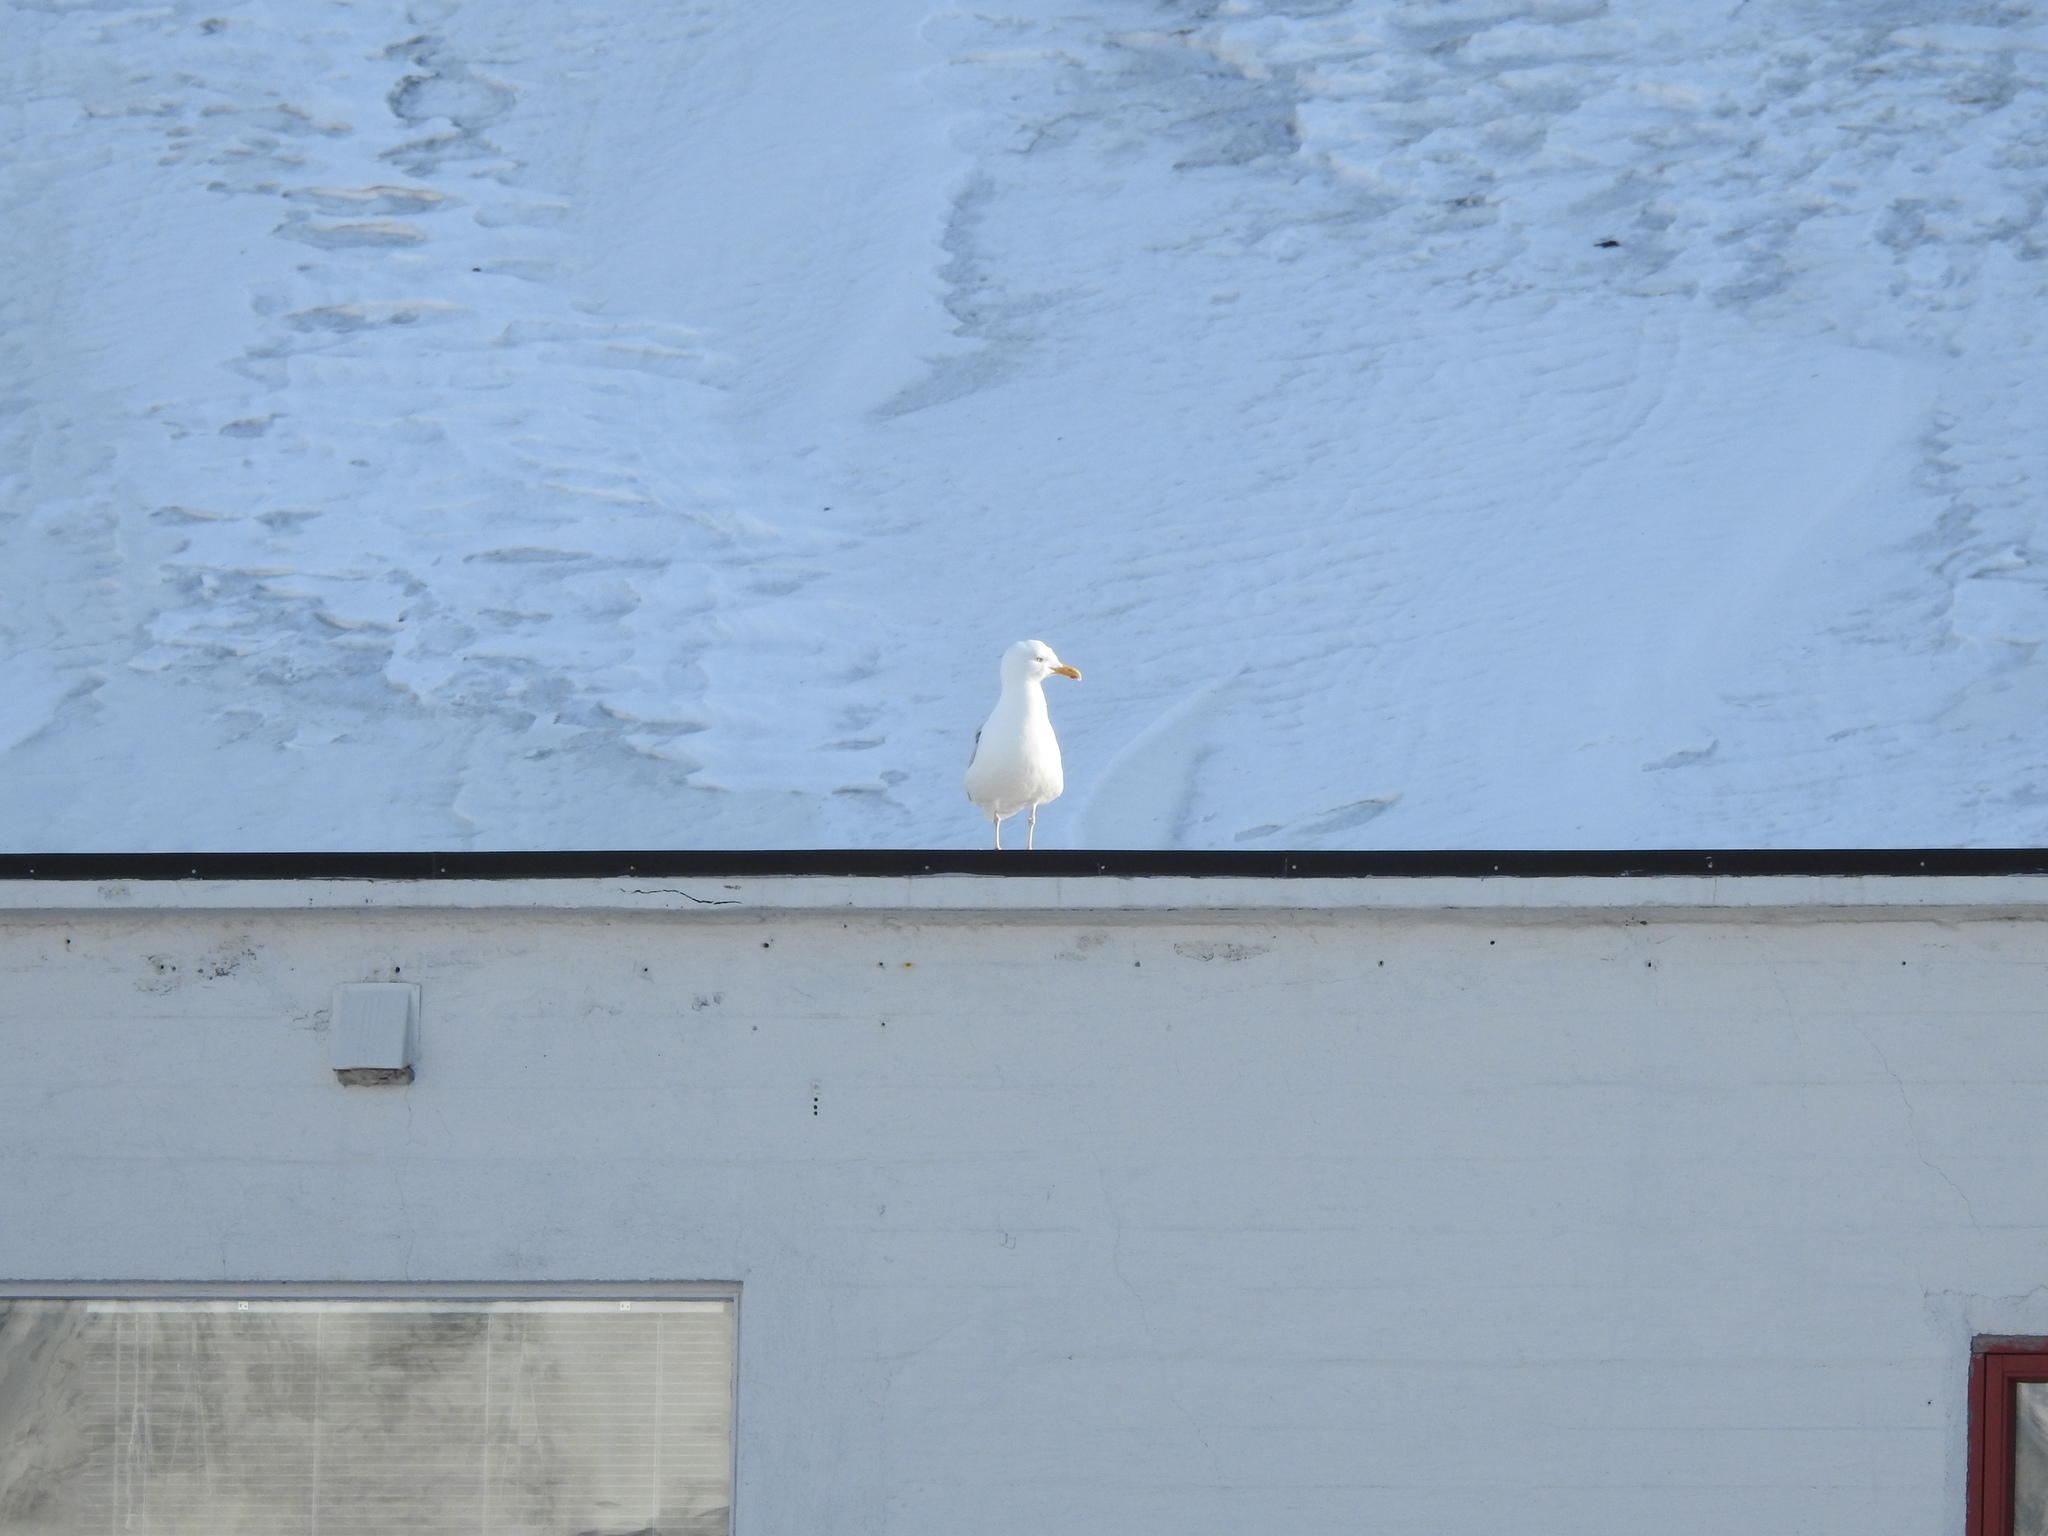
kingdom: Animalia
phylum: Chordata
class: Aves
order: Charadriiformes
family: Laridae
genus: Larus
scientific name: Larus hyperboreus
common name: Glaucous gull
